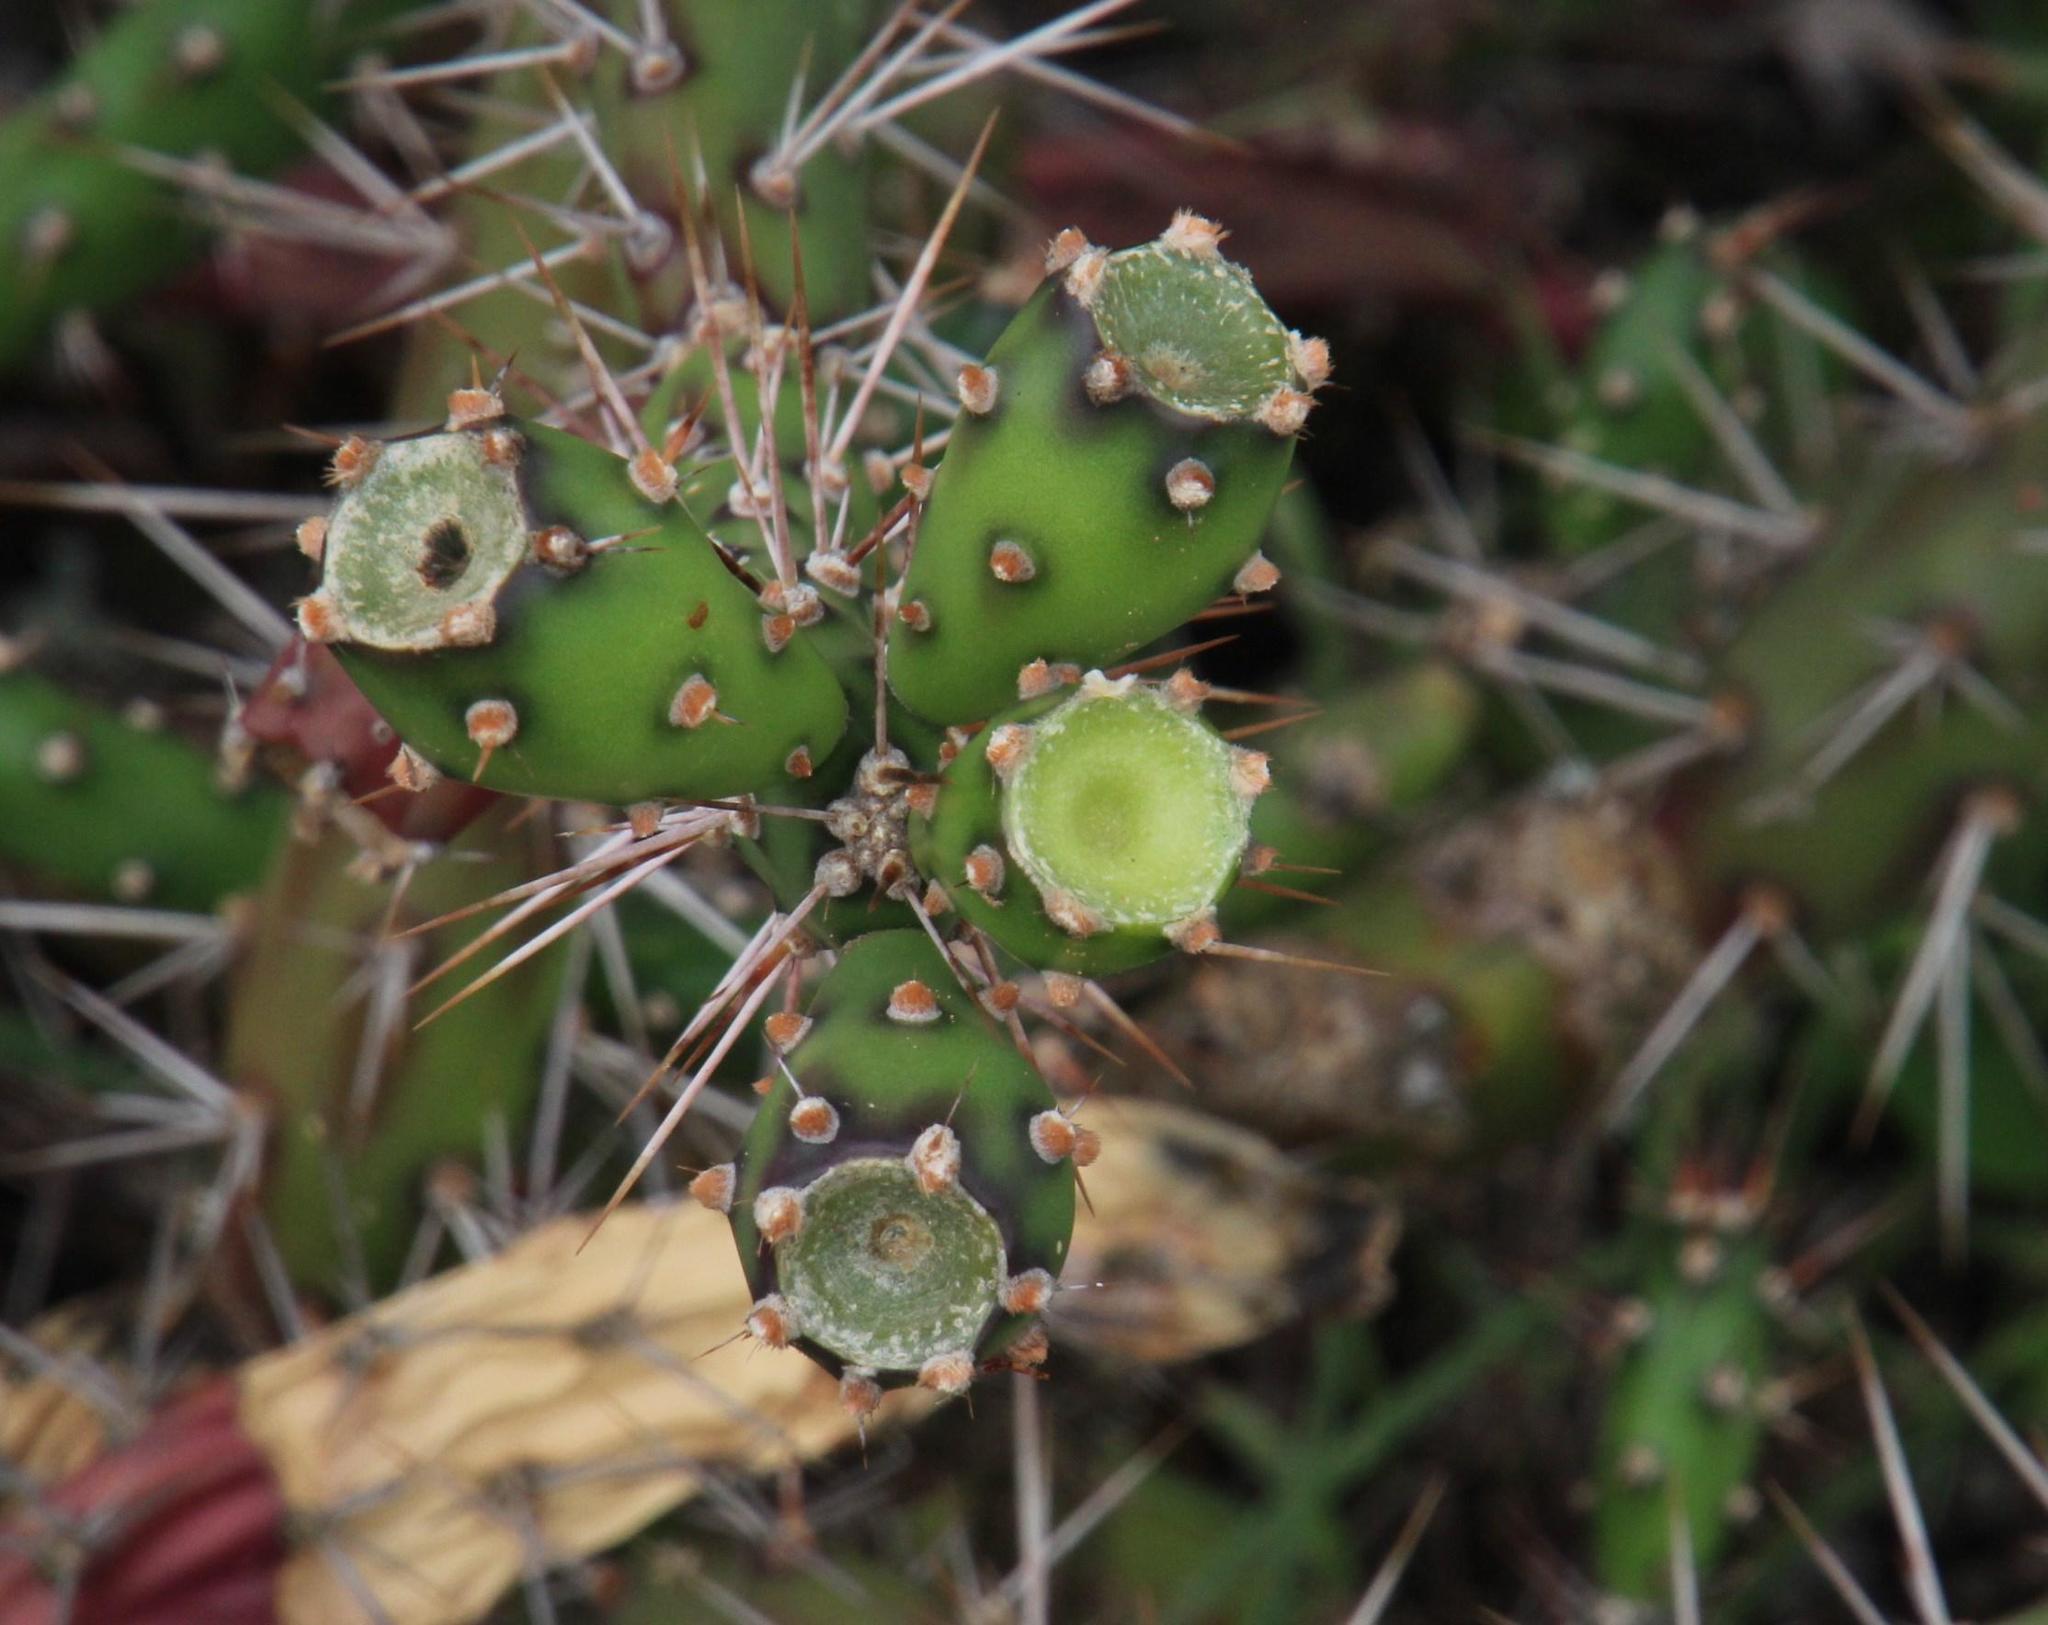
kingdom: Plantae
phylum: Tracheophyta
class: Magnoliopsida
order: Caryophyllales
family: Cactaceae
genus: Opuntia
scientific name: Opuntia aurantiaca
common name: Jointed pricklypear
